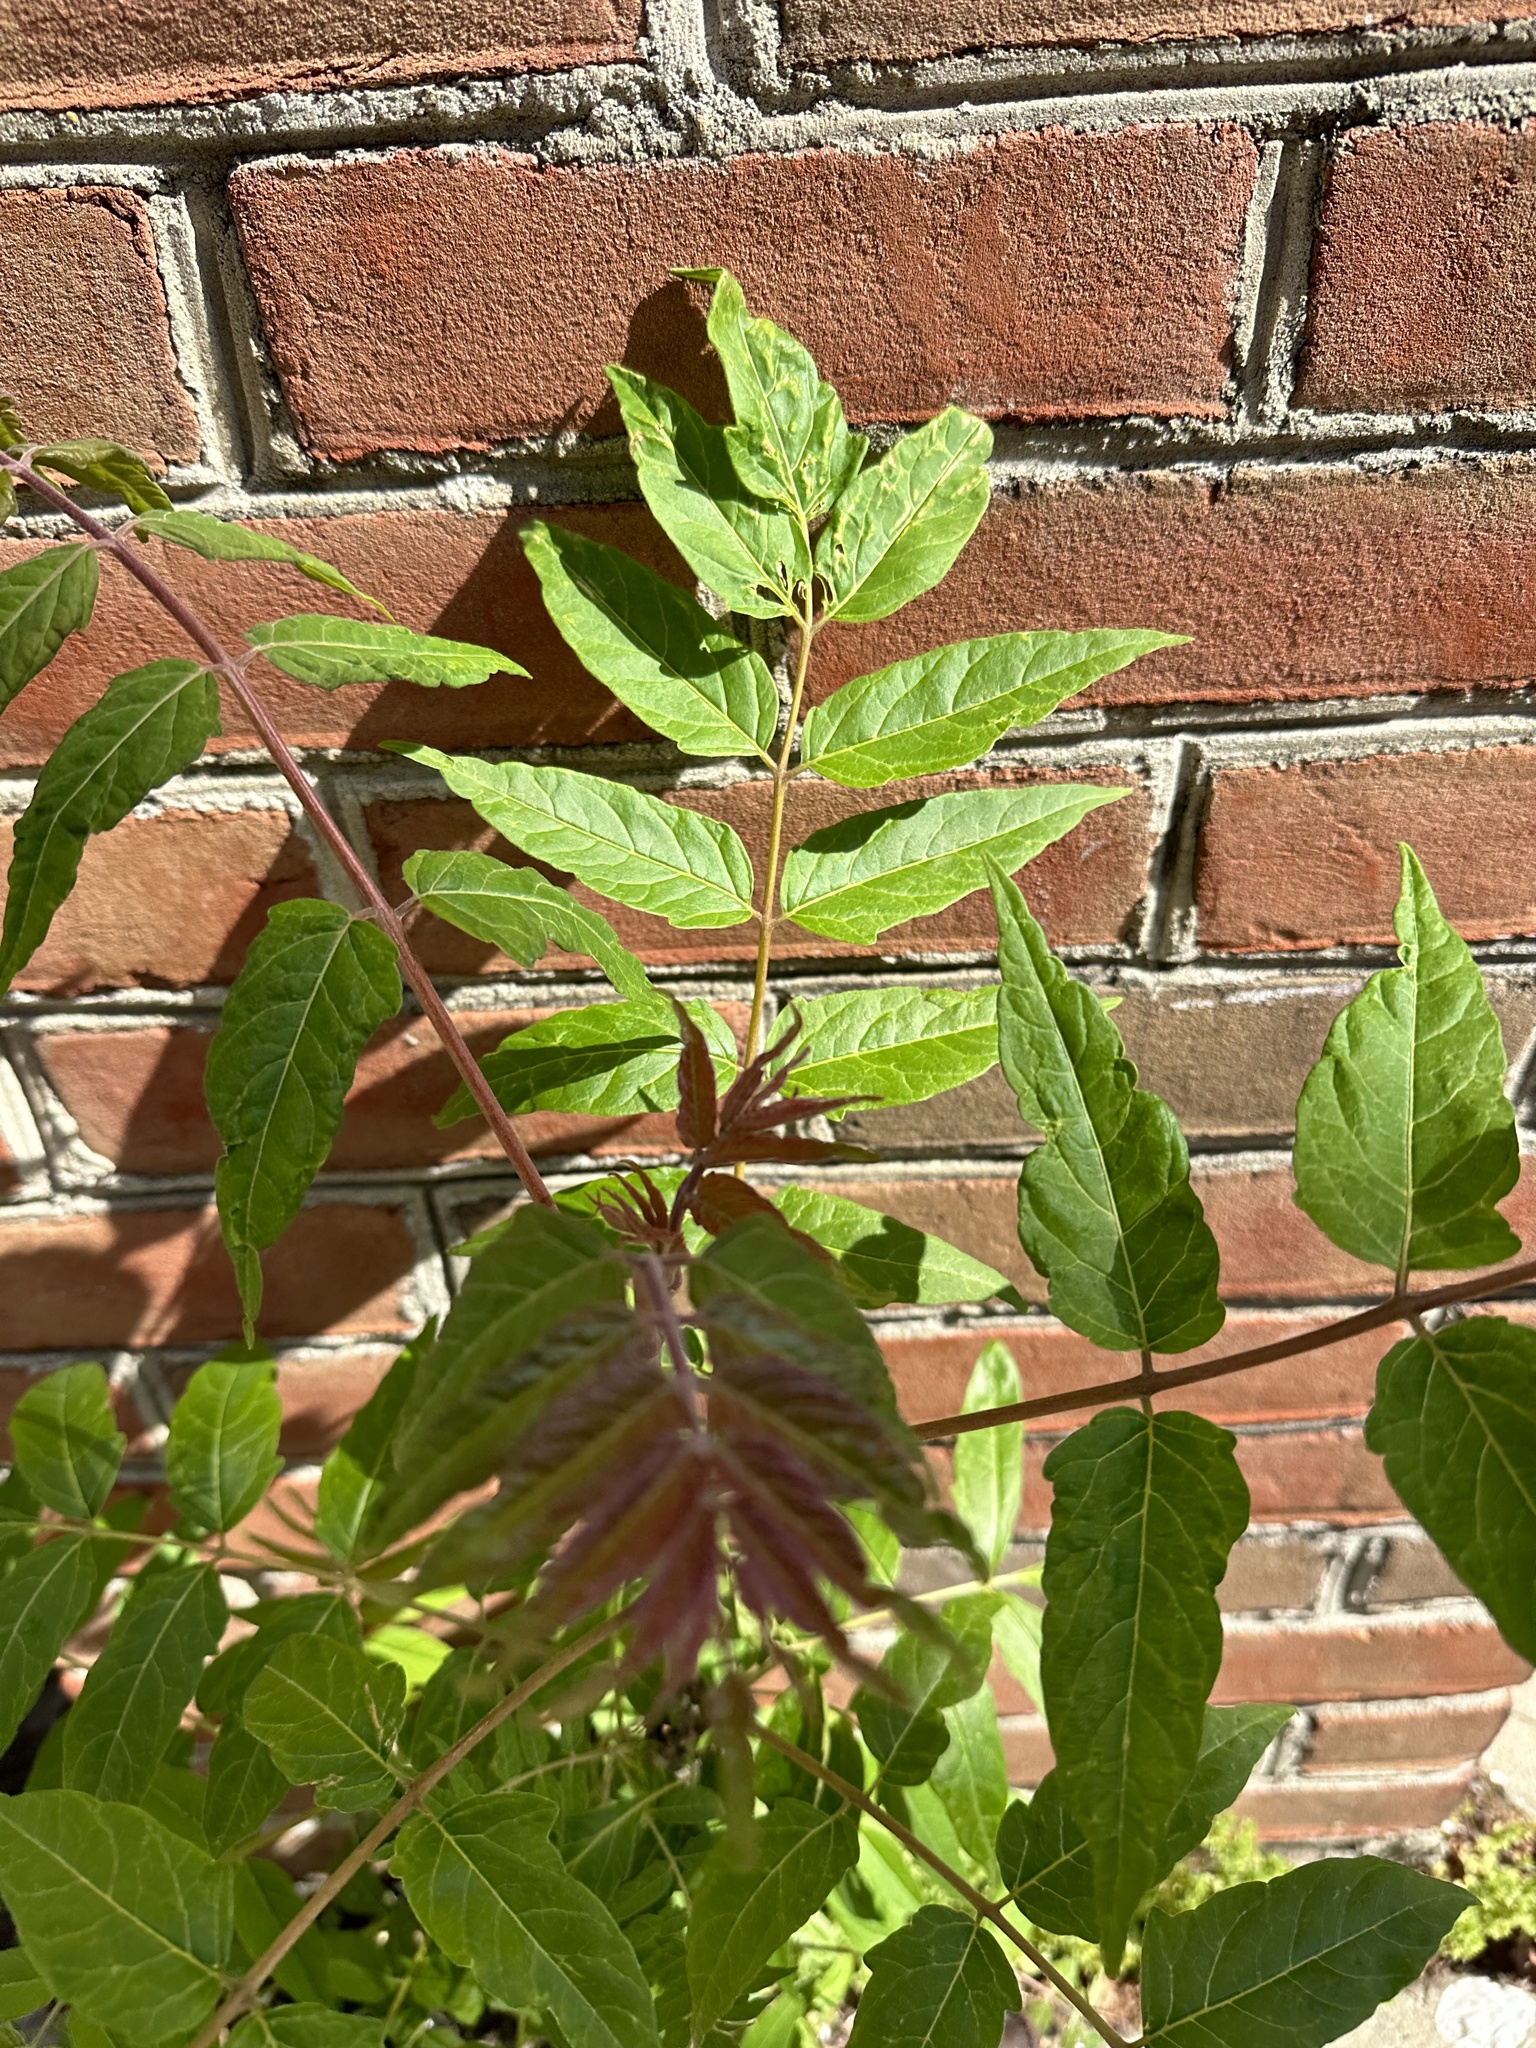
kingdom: Plantae
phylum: Tracheophyta
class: Magnoliopsida
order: Sapindales
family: Simaroubaceae
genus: Ailanthus
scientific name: Ailanthus altissima
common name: Tree-of-heaven
